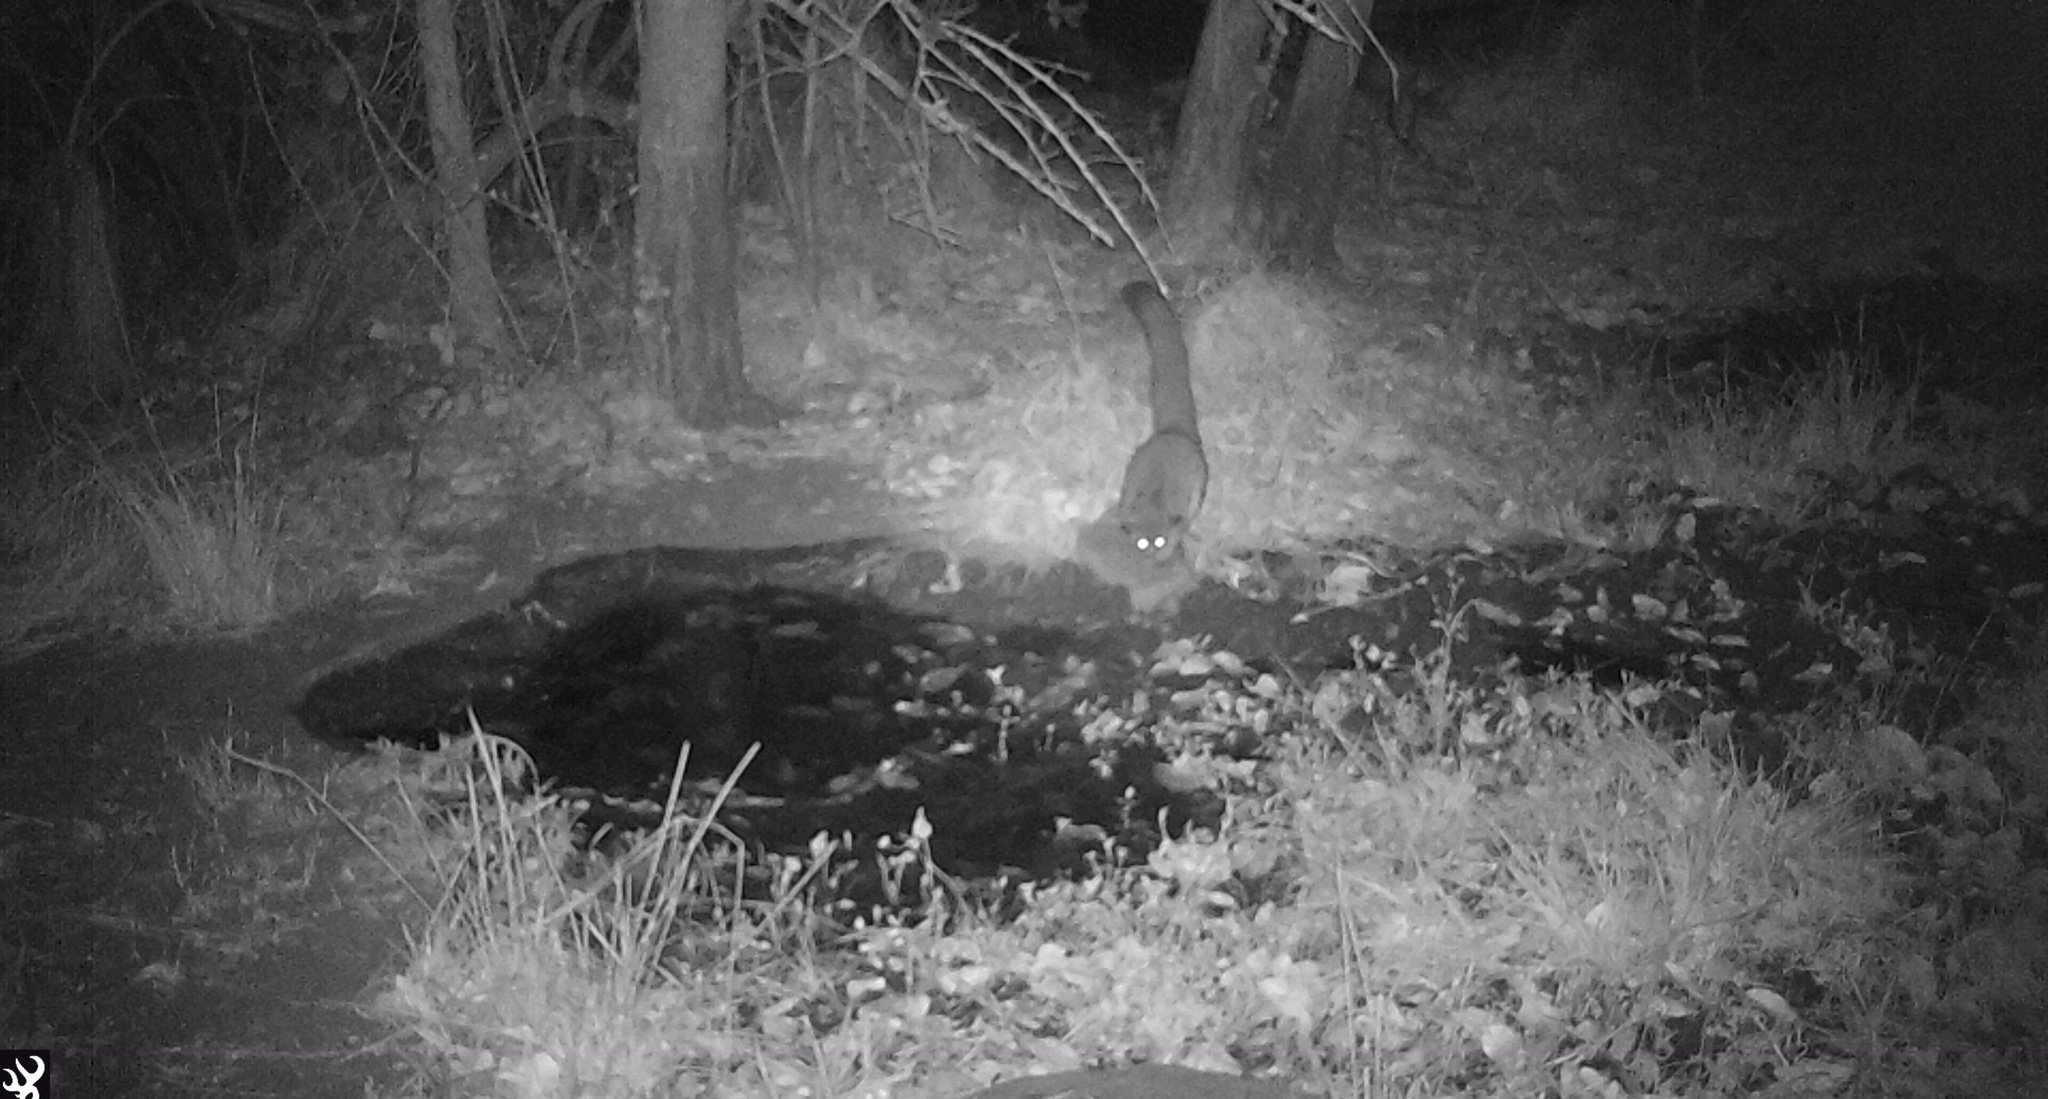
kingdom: Animalia
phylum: Chordata
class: Mammalia
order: Primates
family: Galagidae
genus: Otolemur
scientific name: Otolemur crassicaudatus
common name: Brown greater galago
